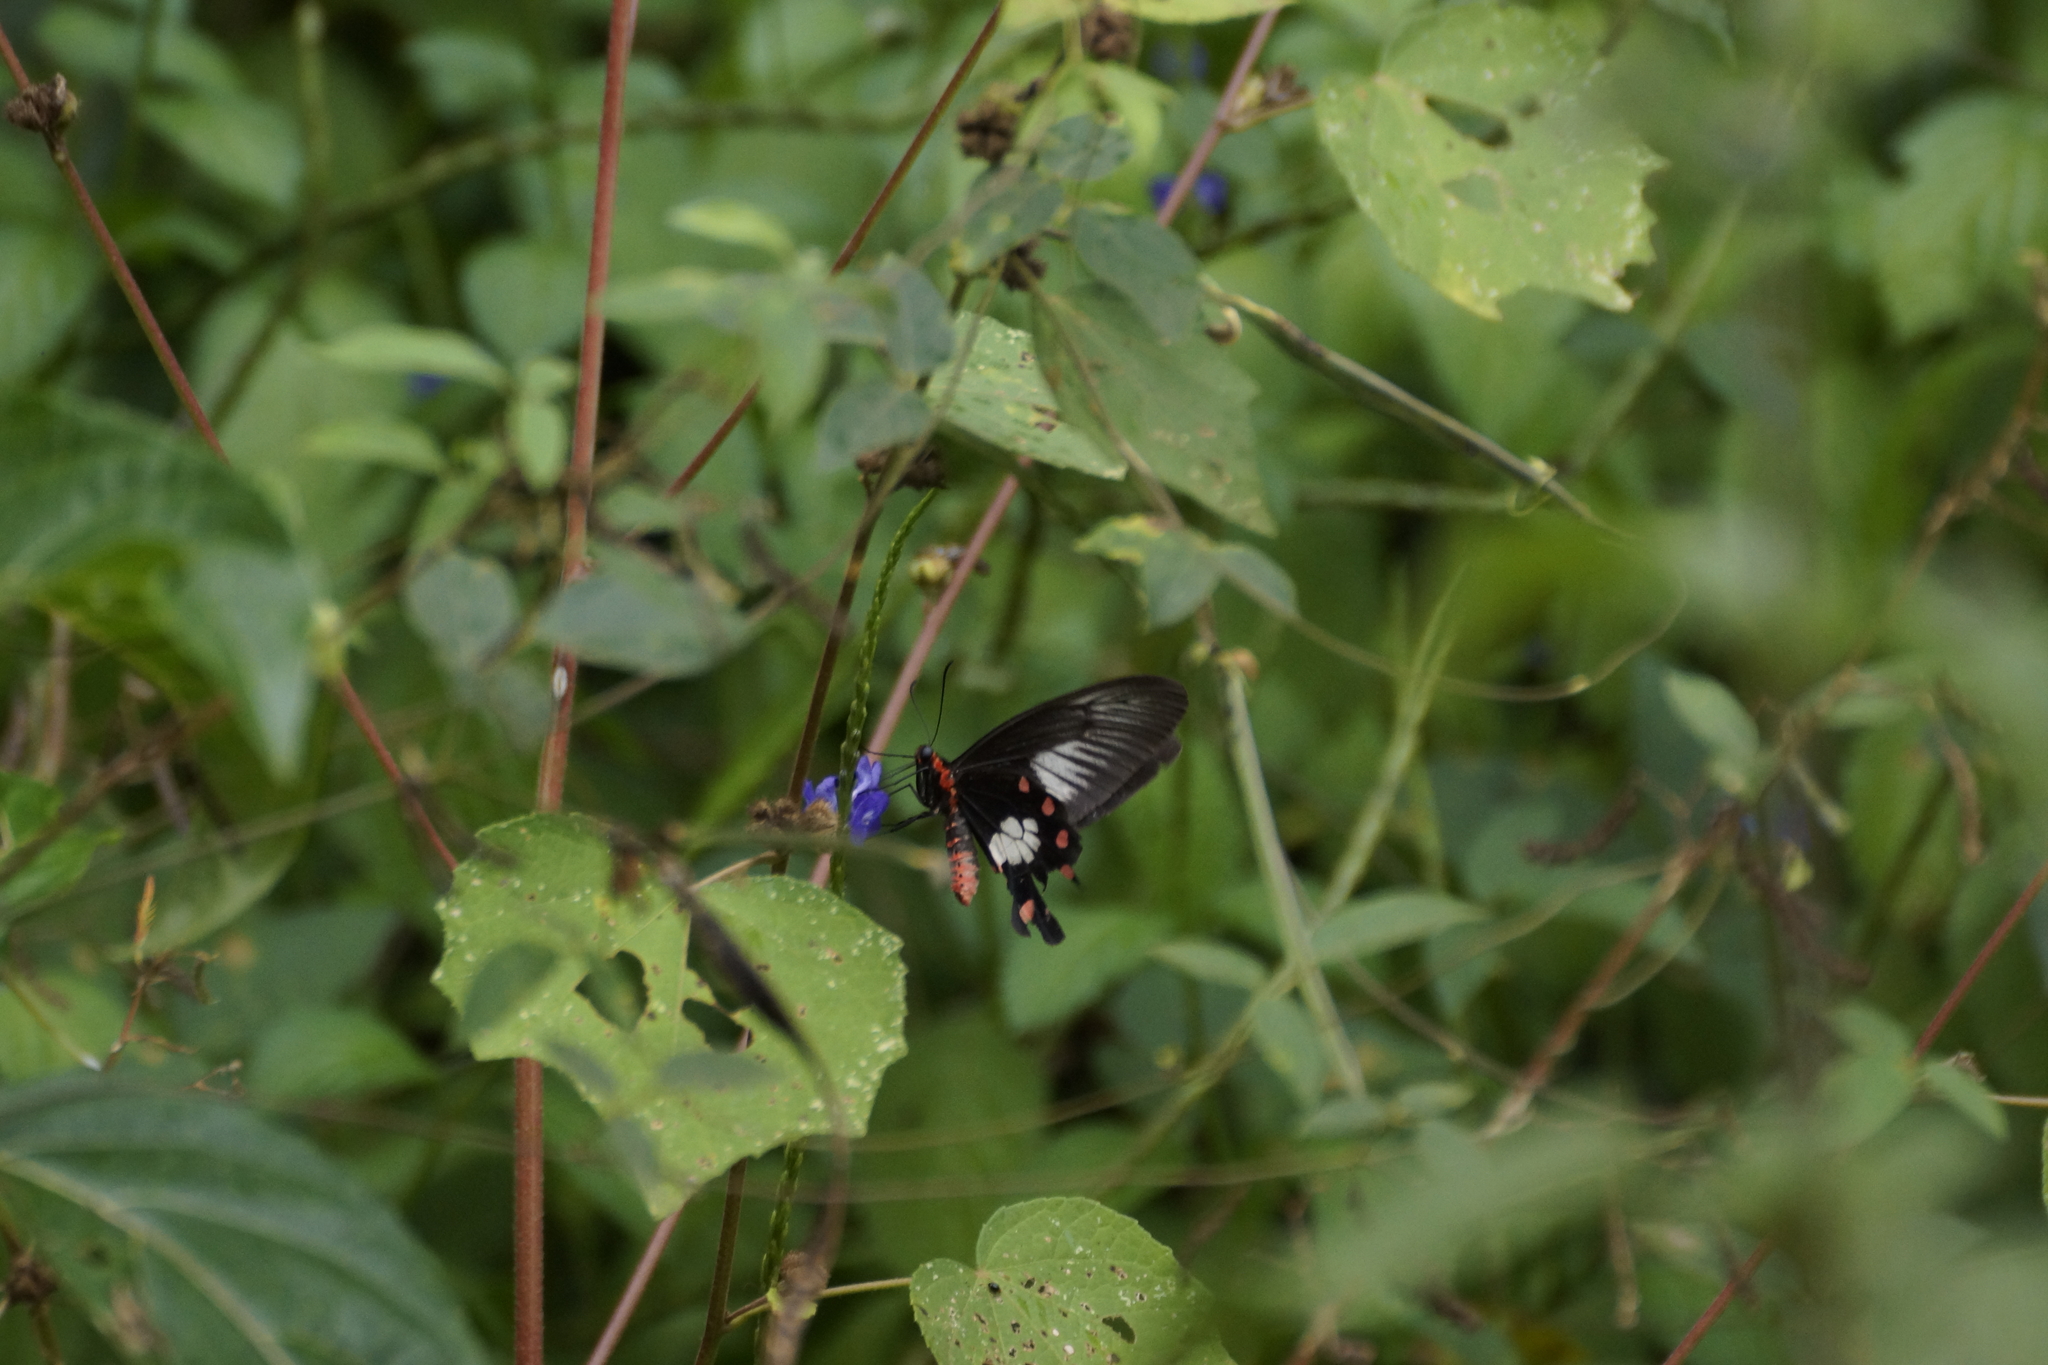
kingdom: Animalia
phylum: Arthropoda
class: Insecta
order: Lepidoptera
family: Papilionidae
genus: Pachliopta
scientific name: Pachliopta polydorus
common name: Red-bodied swallowtail
